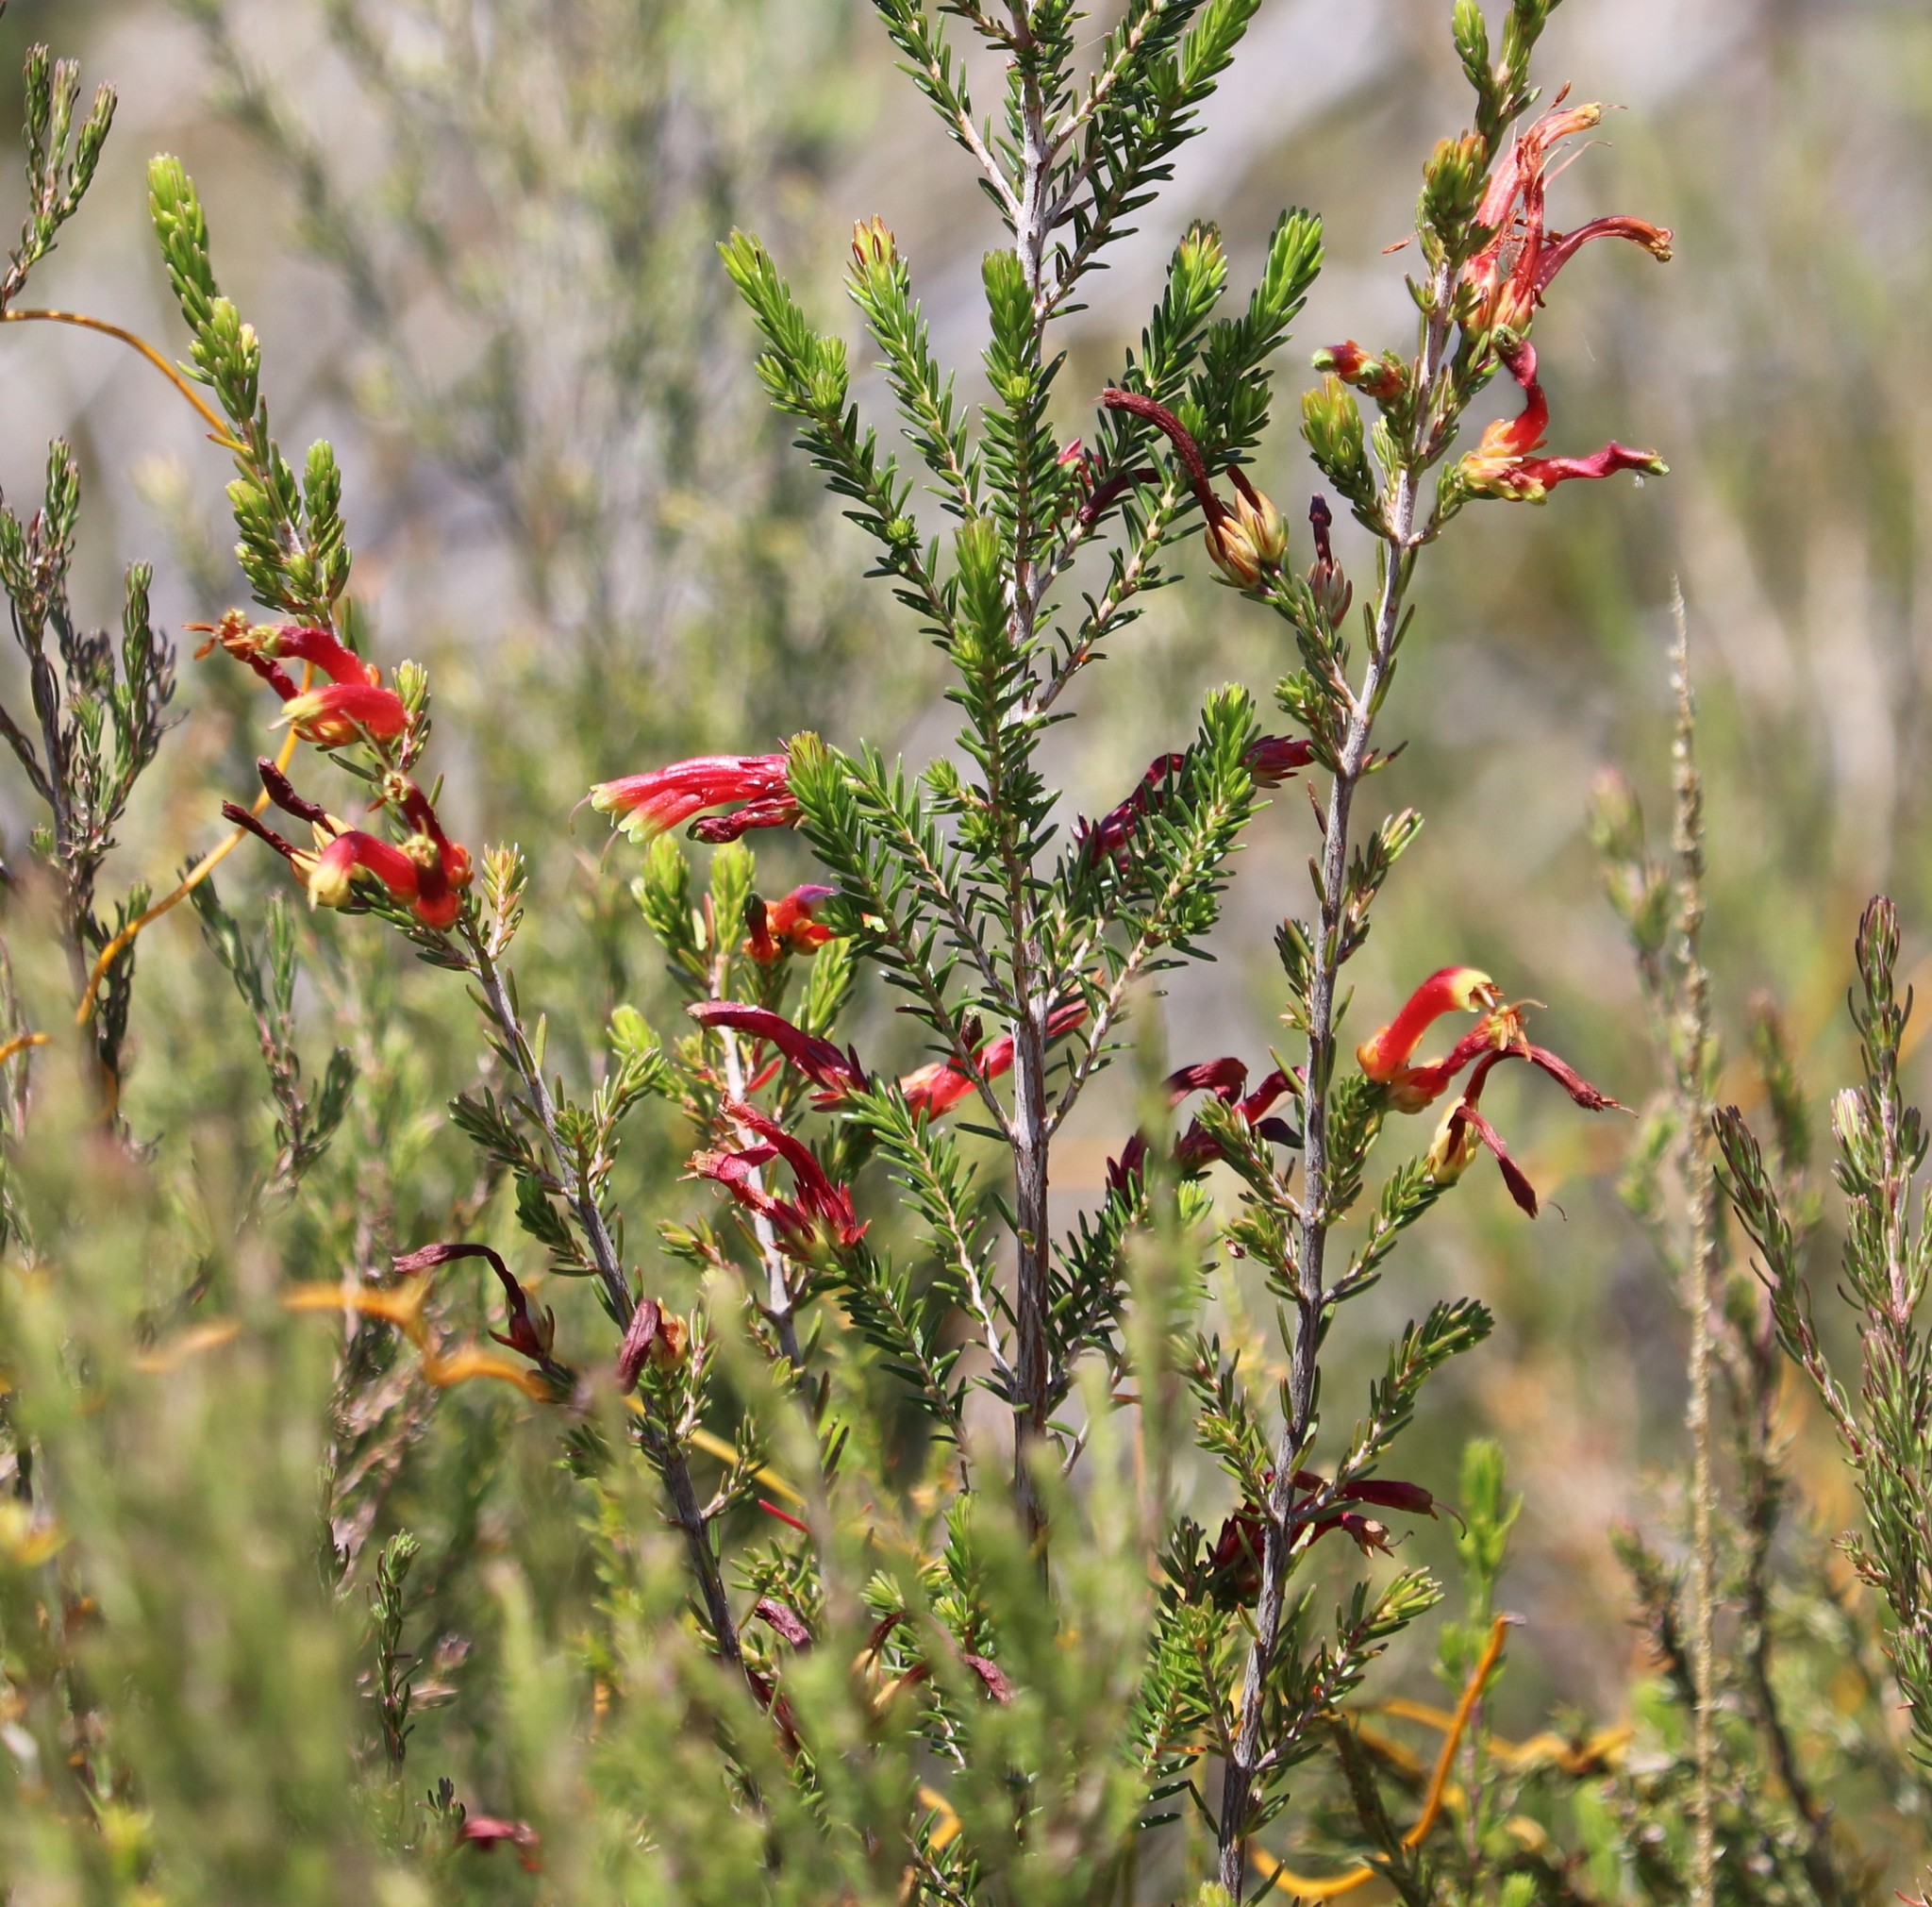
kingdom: Plantae
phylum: Tracheophyta
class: Magnoliopsida
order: Ericales
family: Ericaceae
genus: Erica
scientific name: Erica discolor
